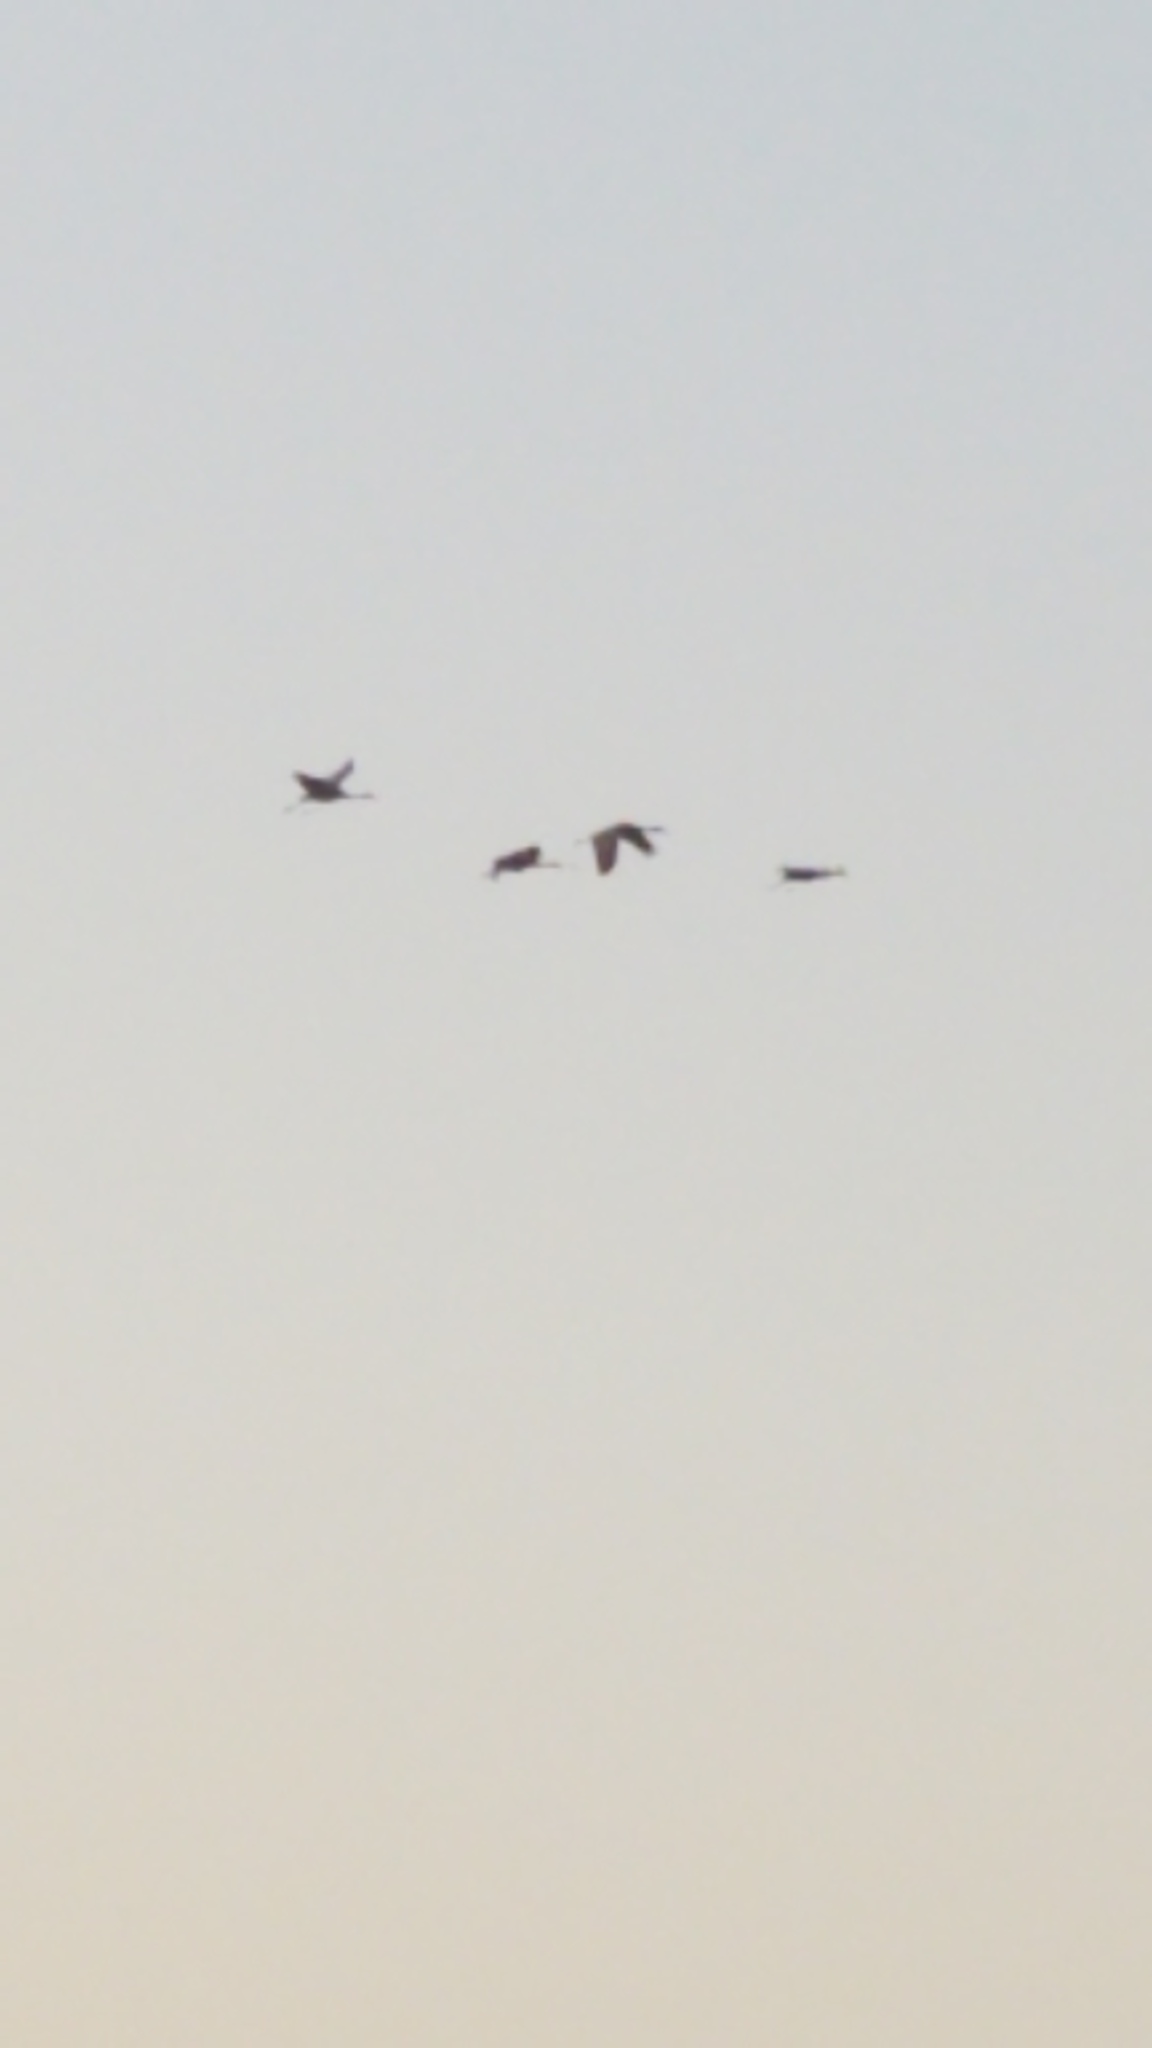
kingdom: Animalia
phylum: Chordata
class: Aves
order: Gruiformes
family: Gruidae
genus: Grus
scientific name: Grus canadensis
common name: Sandhill crane
